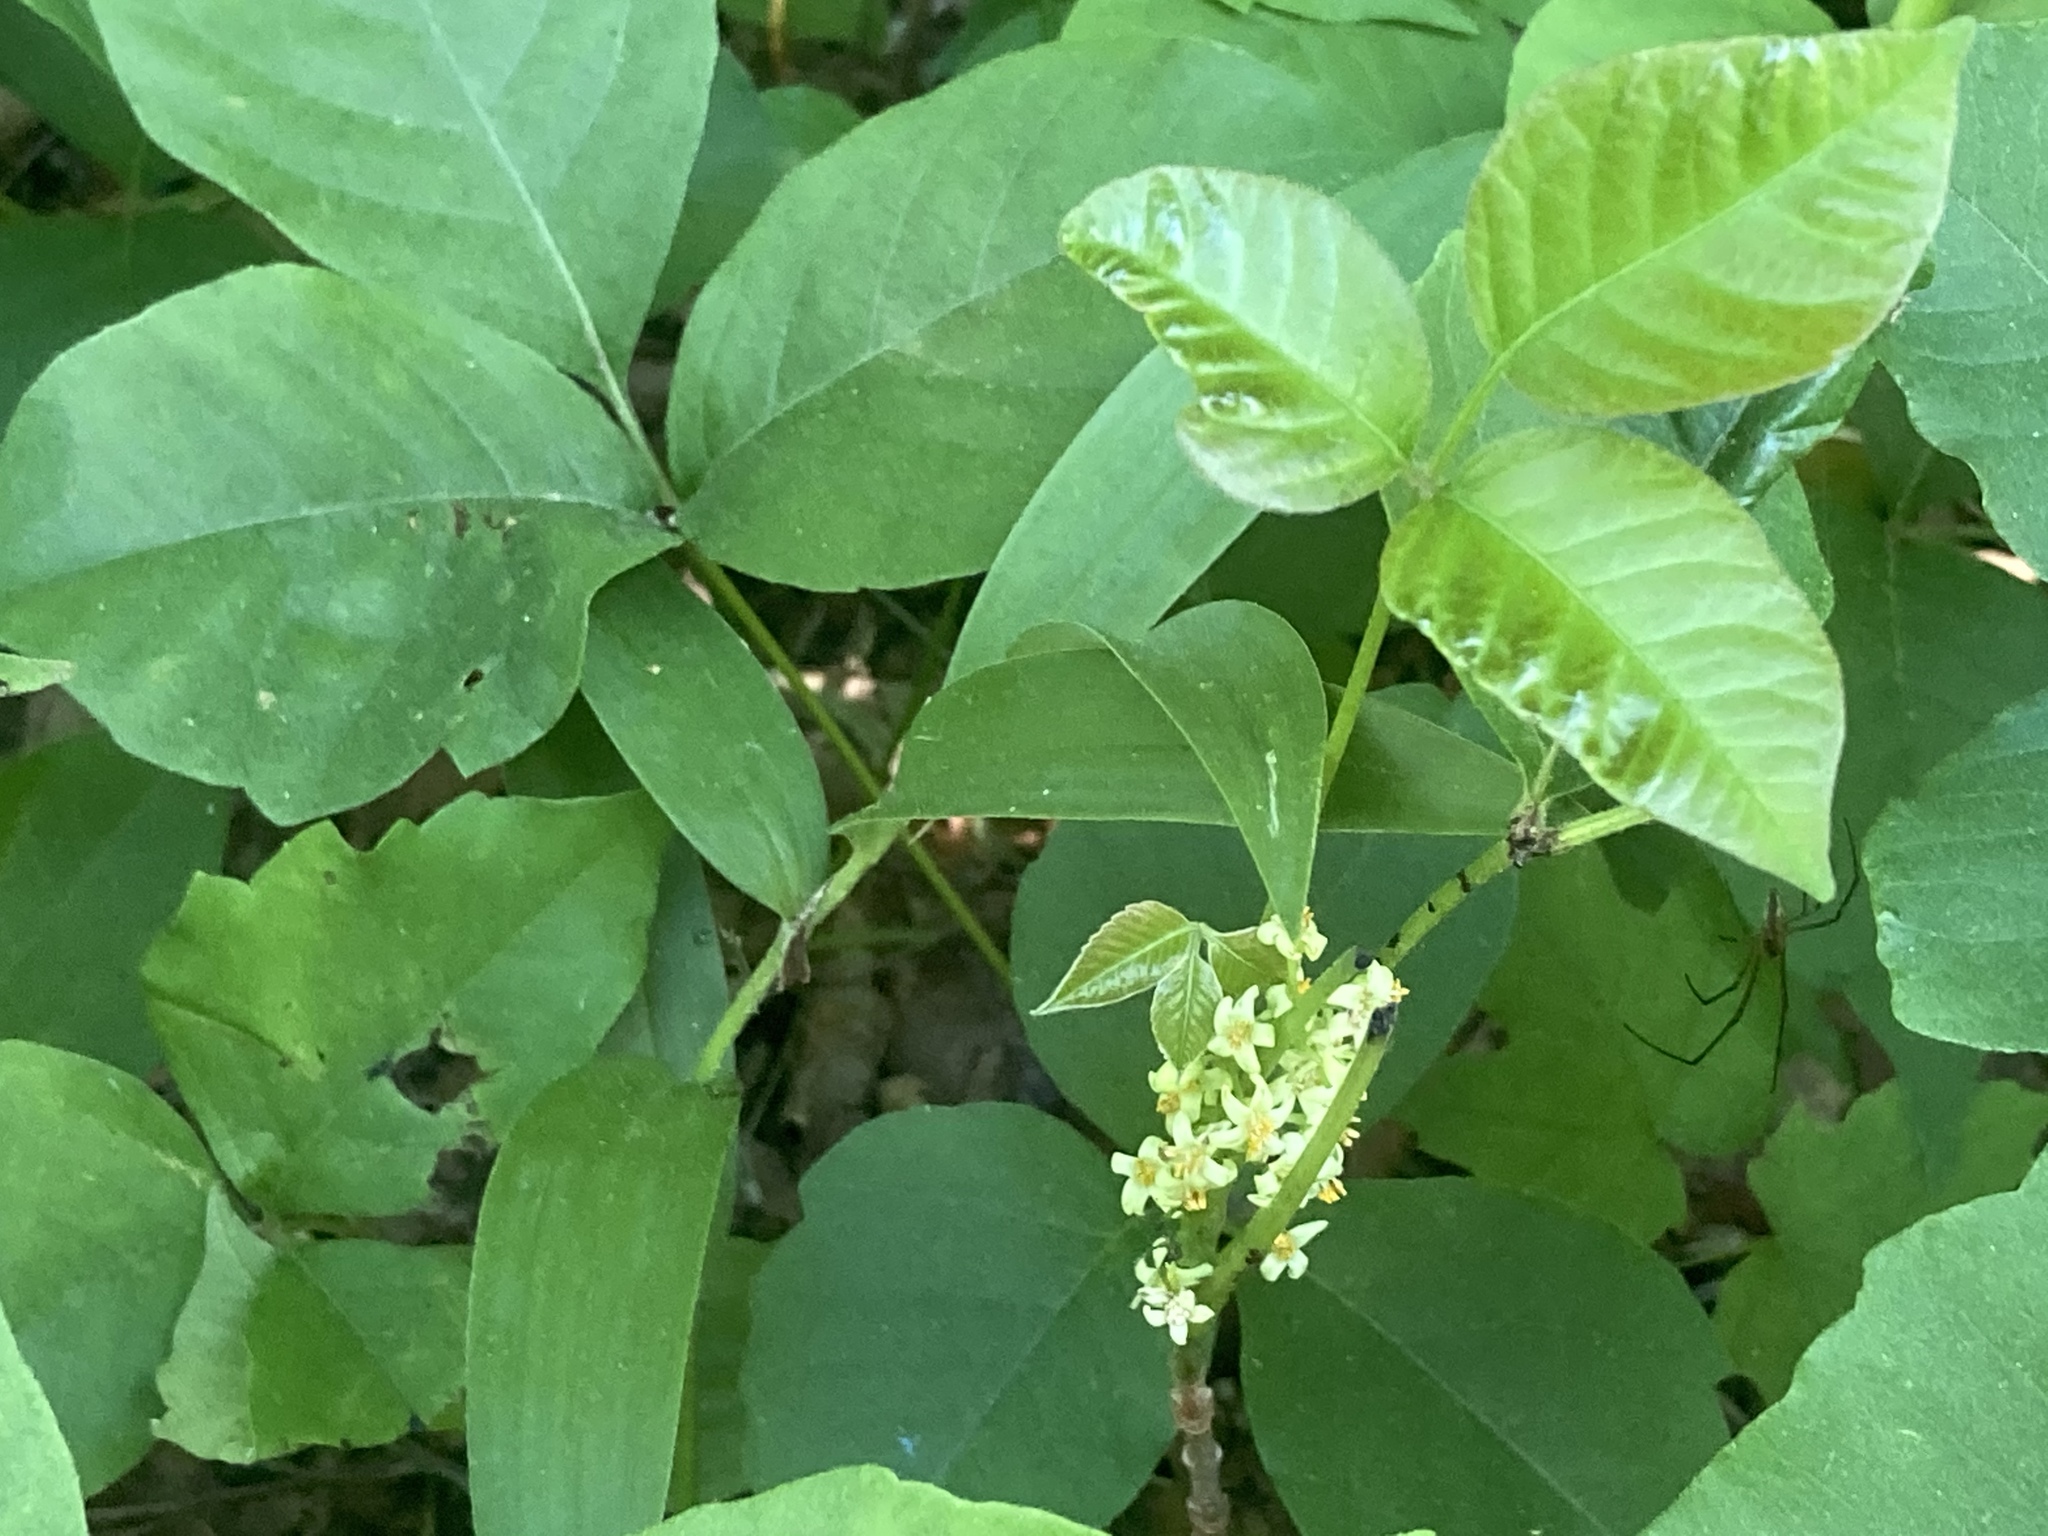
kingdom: Plantae
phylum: Tracheophyta
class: Magnoliopsida
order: Sapindales
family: Anacardiaceae
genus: Toxicodendron
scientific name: Toxicodendron rydbergii
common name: Rydberg's poison-ivy
